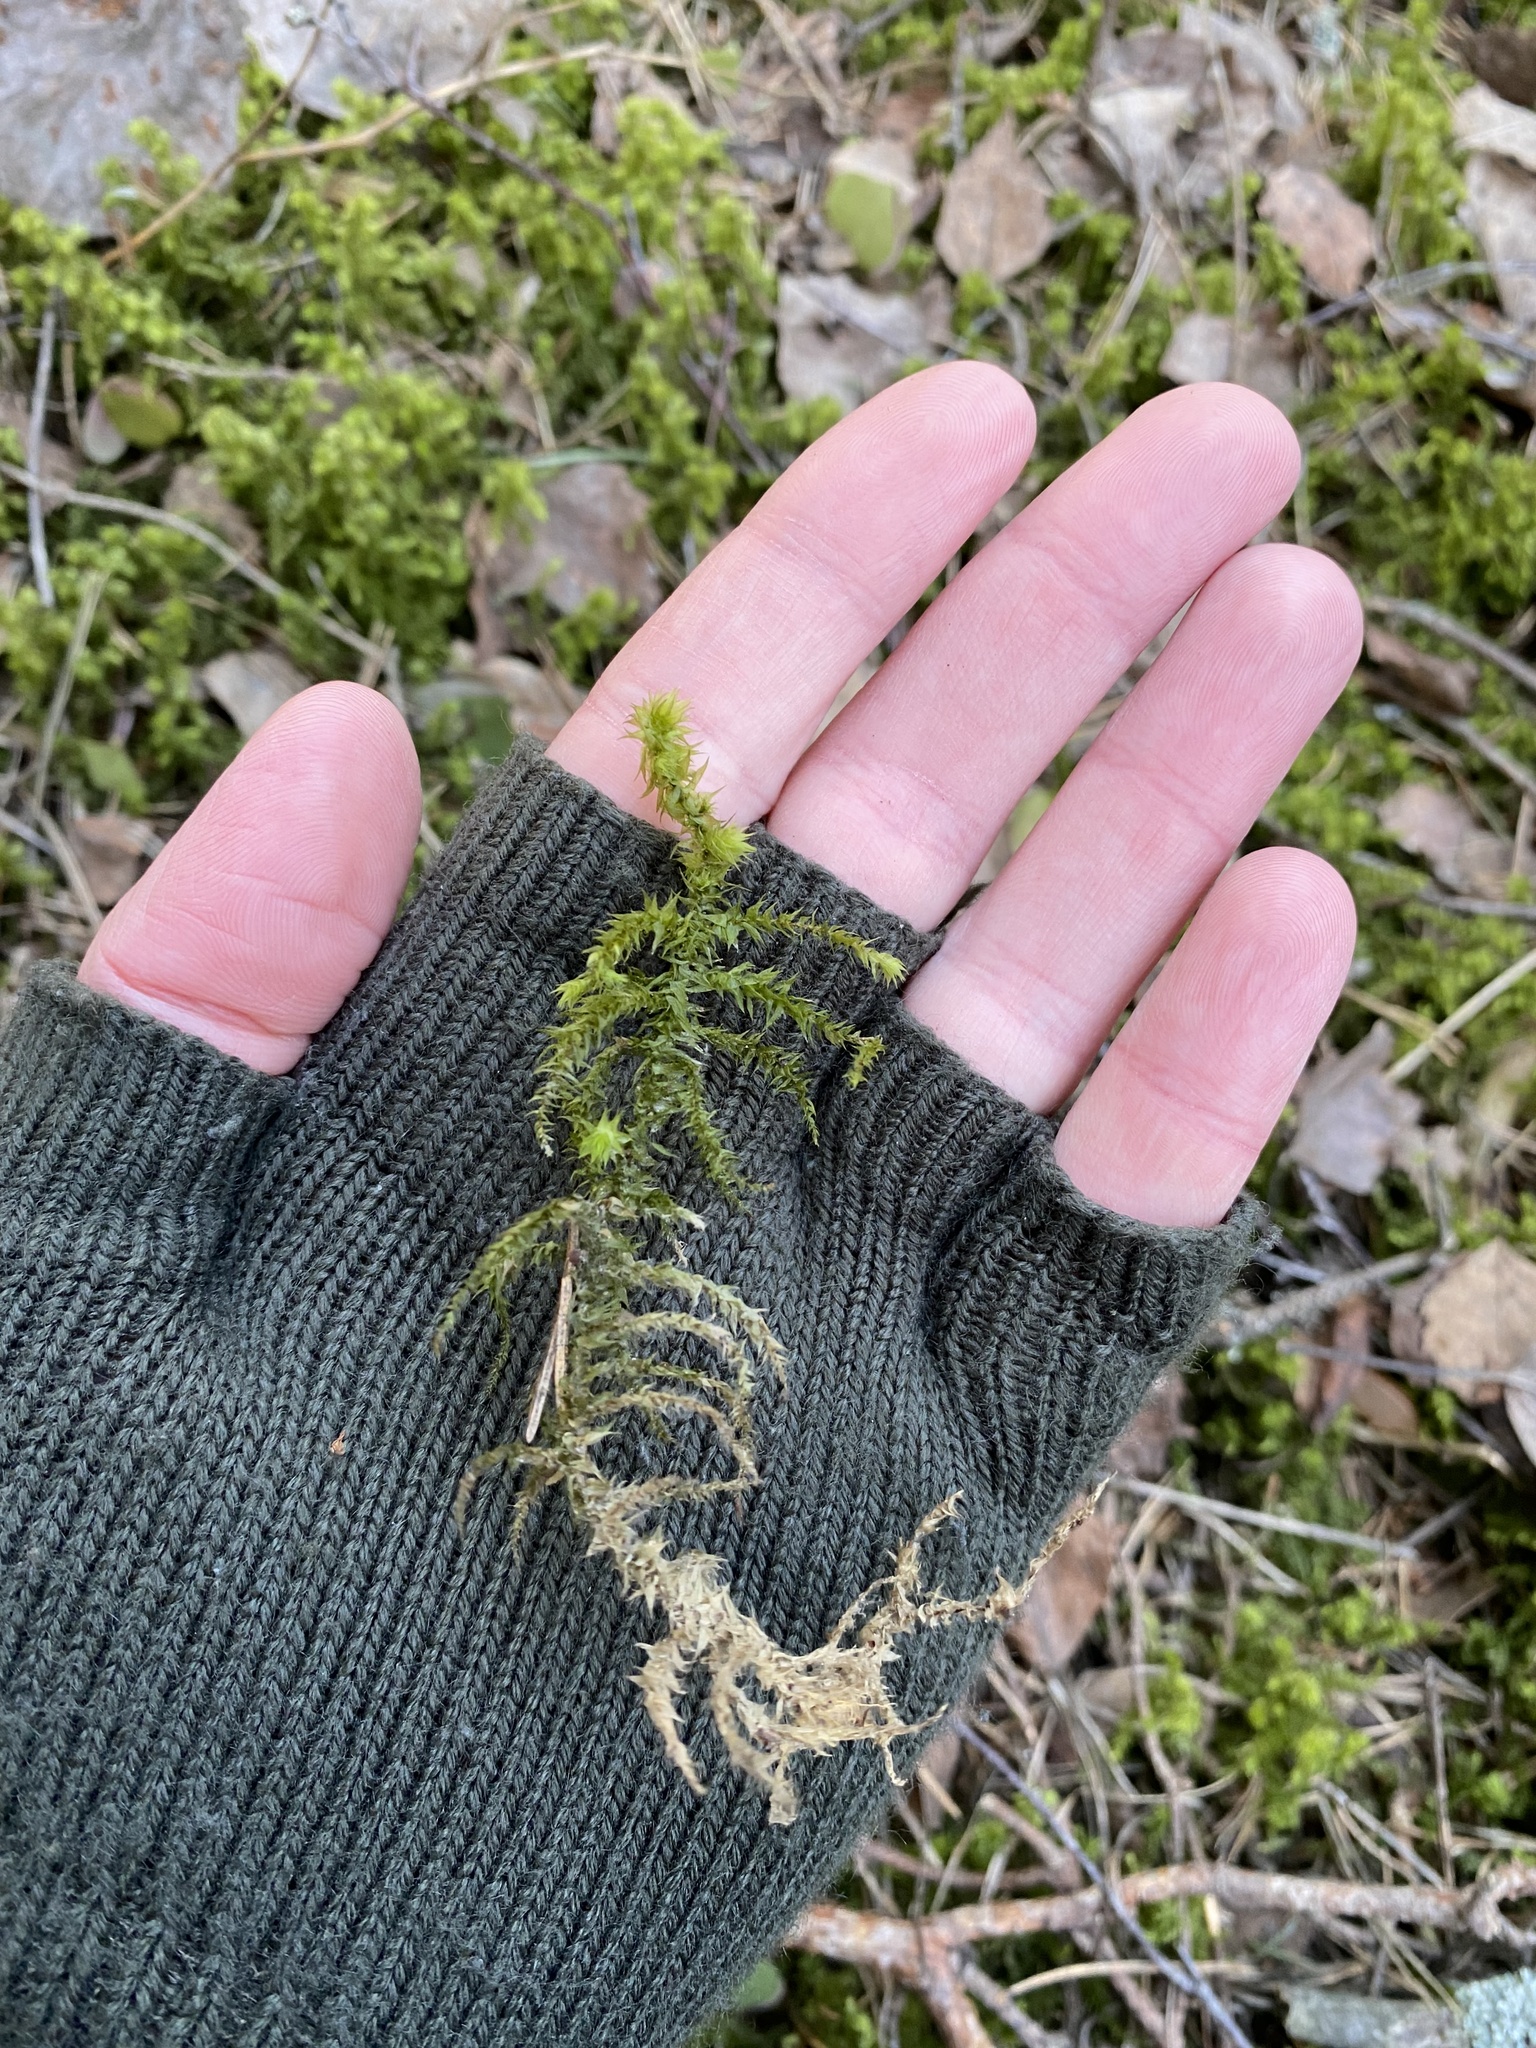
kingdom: Plantae
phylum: Bryophyta
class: Bryopsida
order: Hypnales
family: Hylocomiaceae
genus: Hylocomiadelphus
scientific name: Hylocomiadelphus triquetrus
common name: Rough goose neck moss
